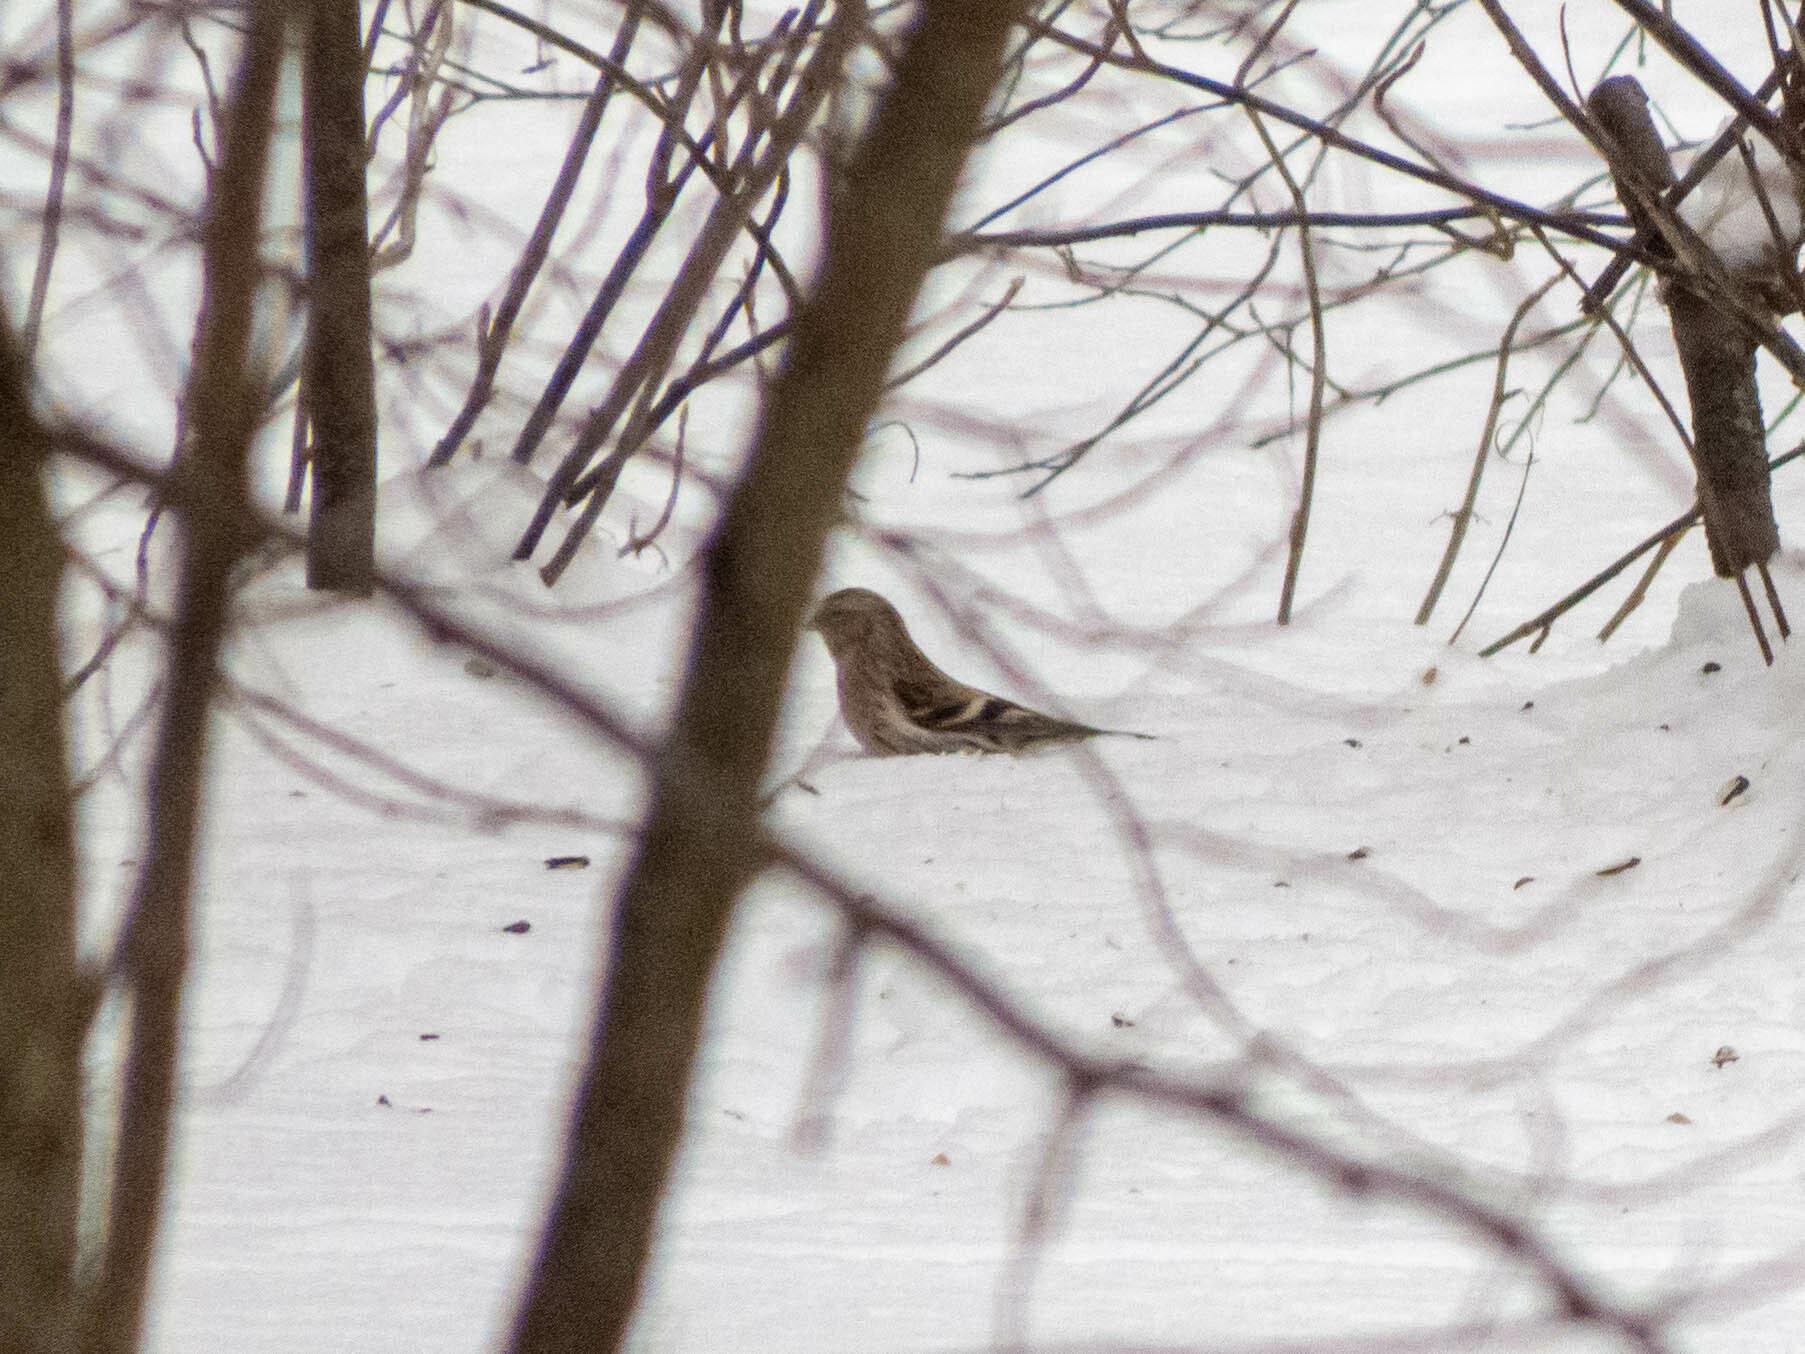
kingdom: Animalia
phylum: Chordata
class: Aves
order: Passeriformes
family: Fringillidae
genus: Acanthis
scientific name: Acanthis flammea
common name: Common redpoll
